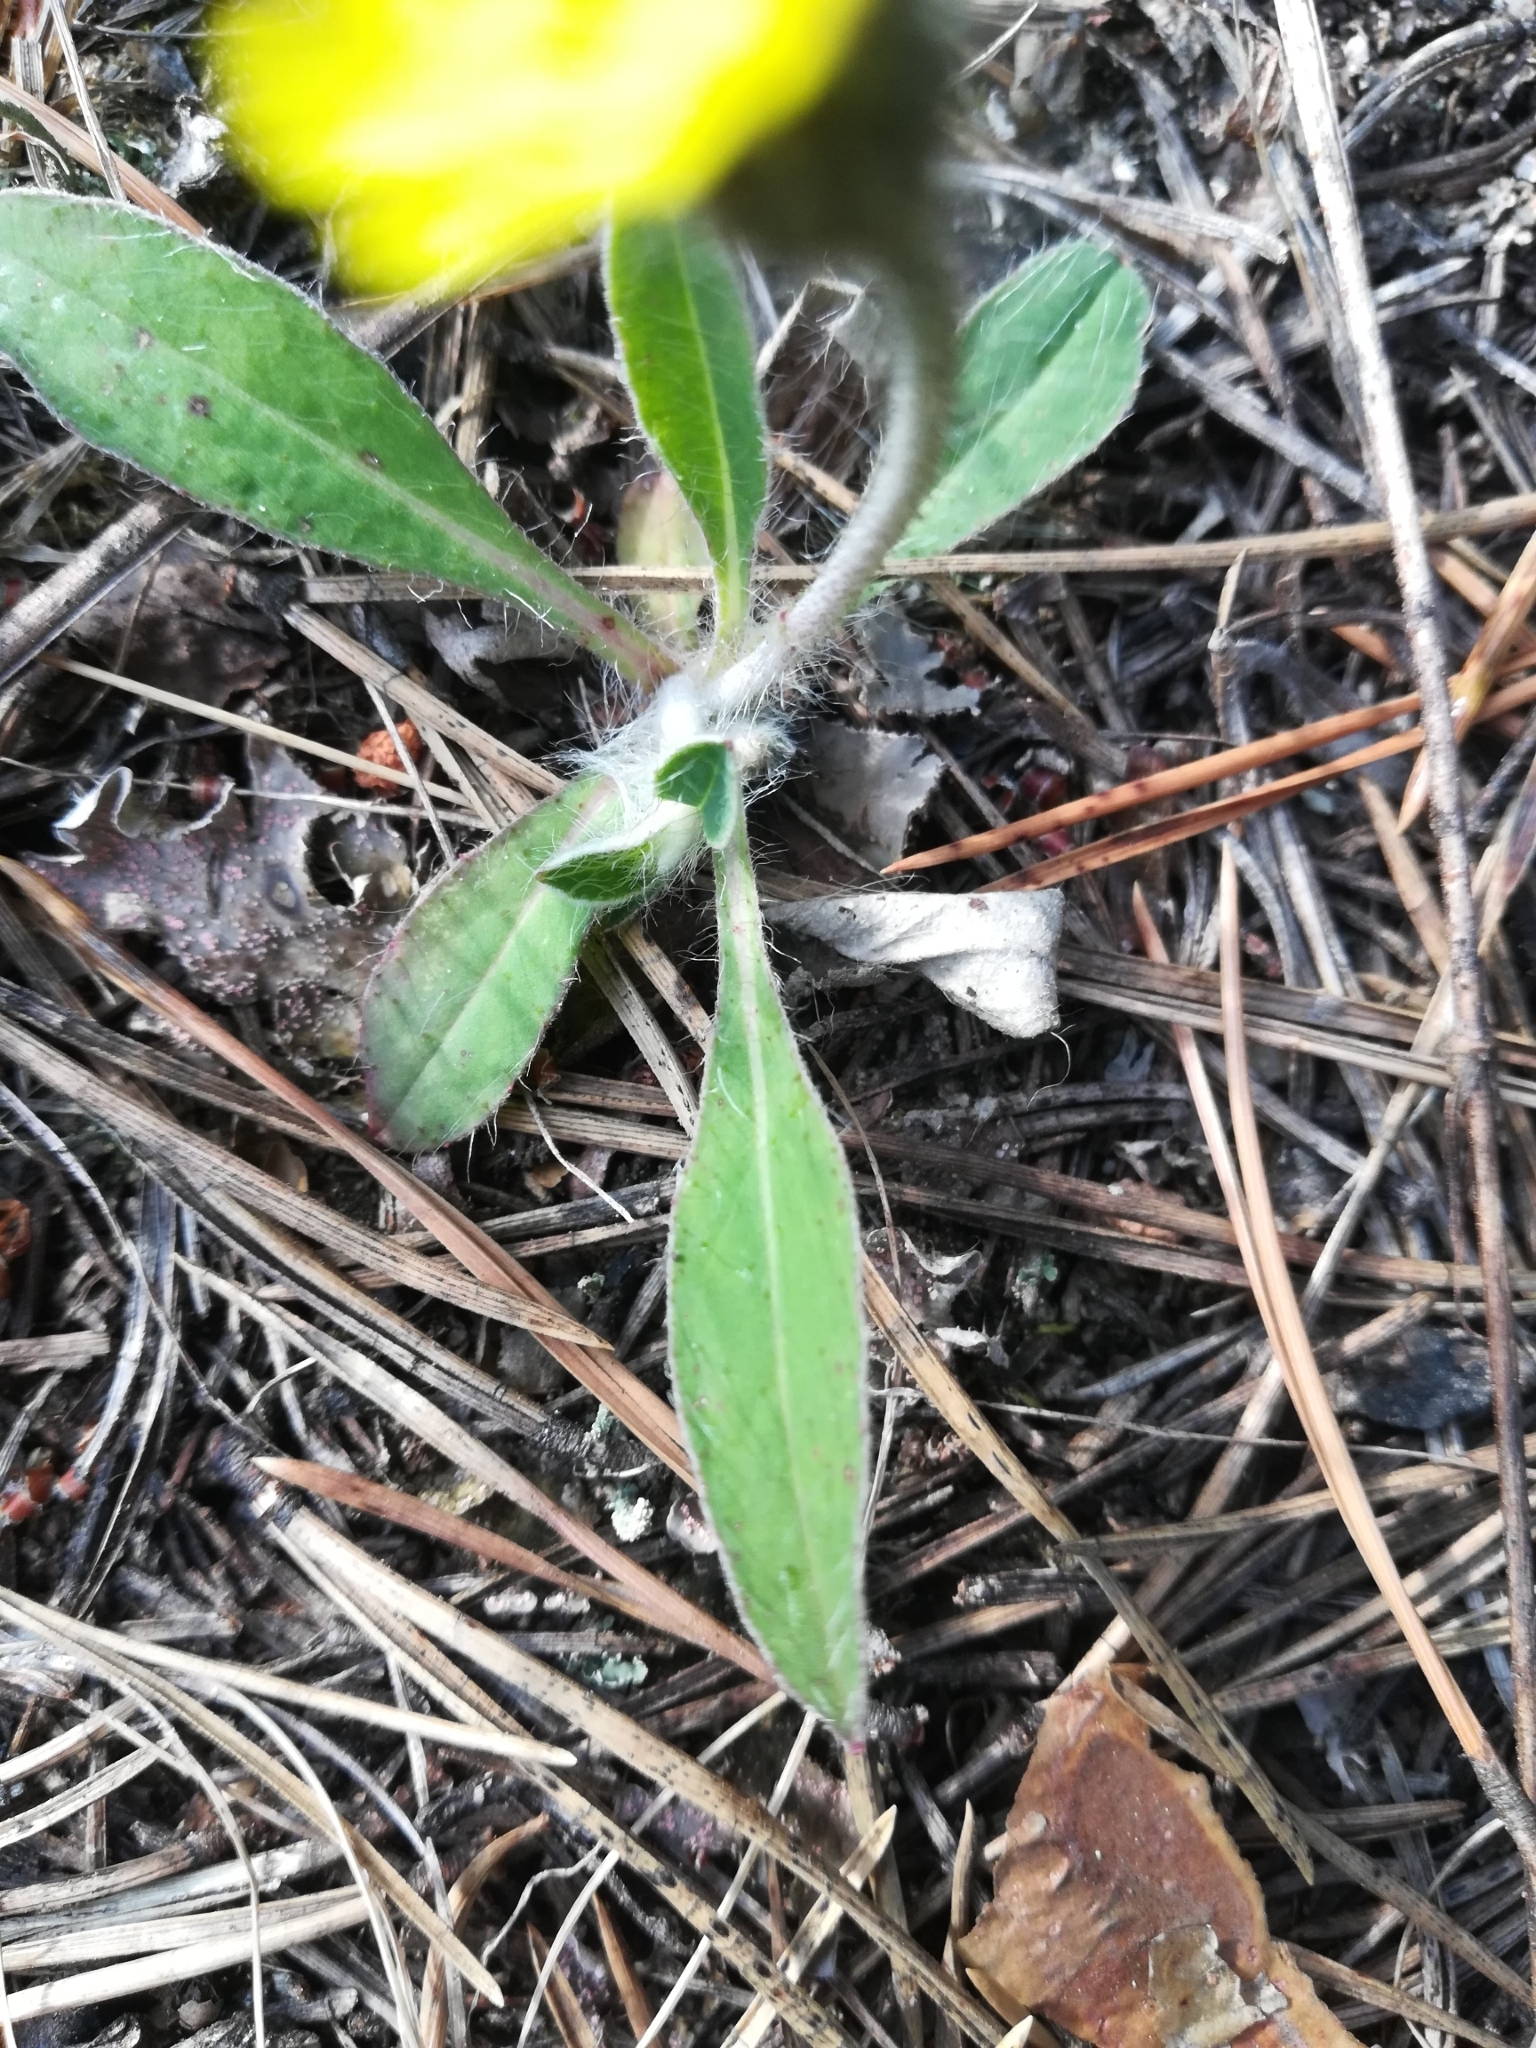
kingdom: Plantae
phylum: Tracheophyta
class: Magnoliopsida
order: Asterales
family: Asteraceae
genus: Pilosella
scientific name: Pilosella officinarum
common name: Mouse-ear hawkweed
